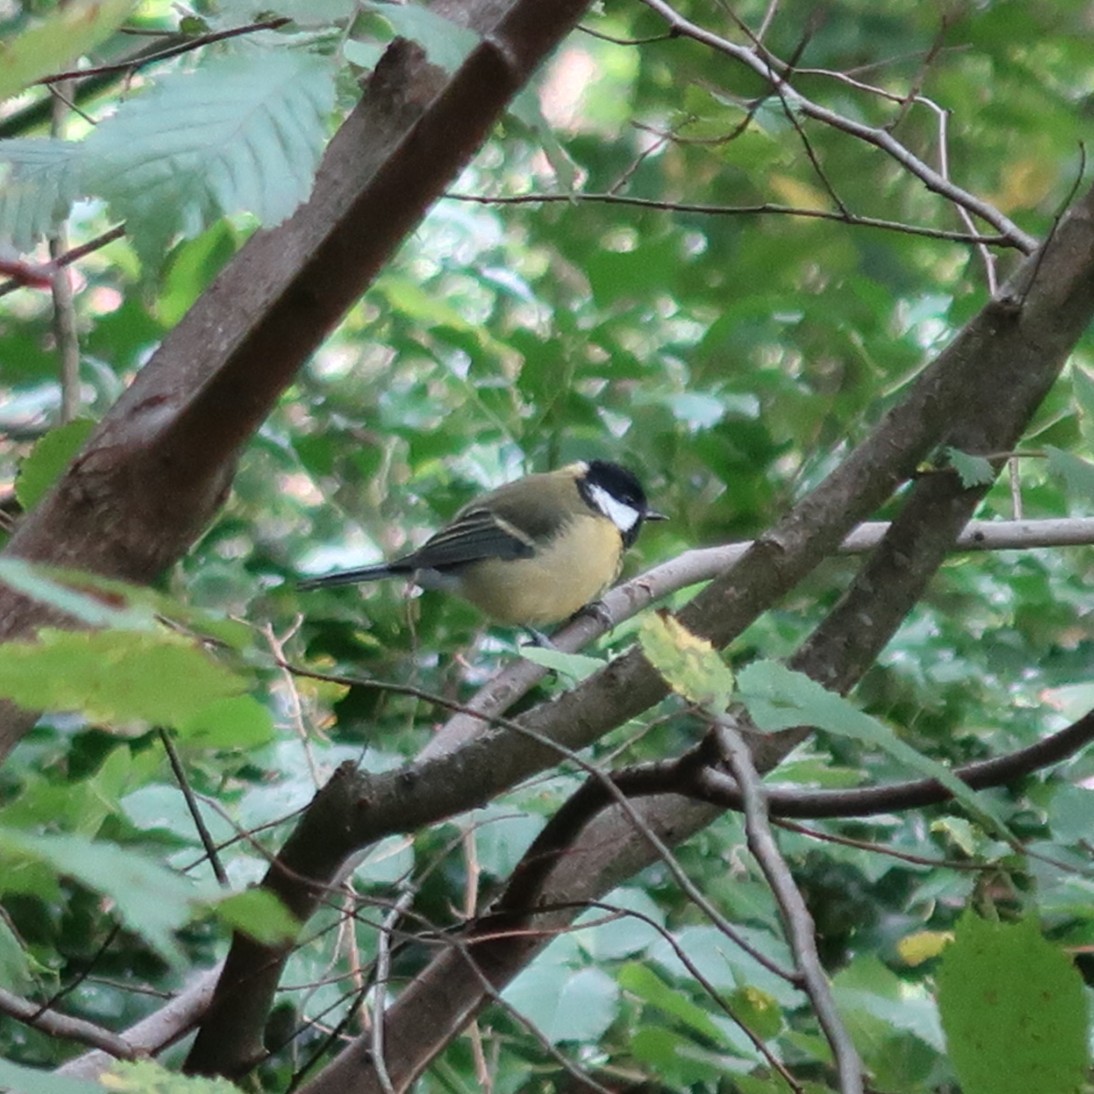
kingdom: Animalia
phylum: Chordata
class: Aves
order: Passeriformes
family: Paridae
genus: Parus
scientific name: Parus major
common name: Great tit
